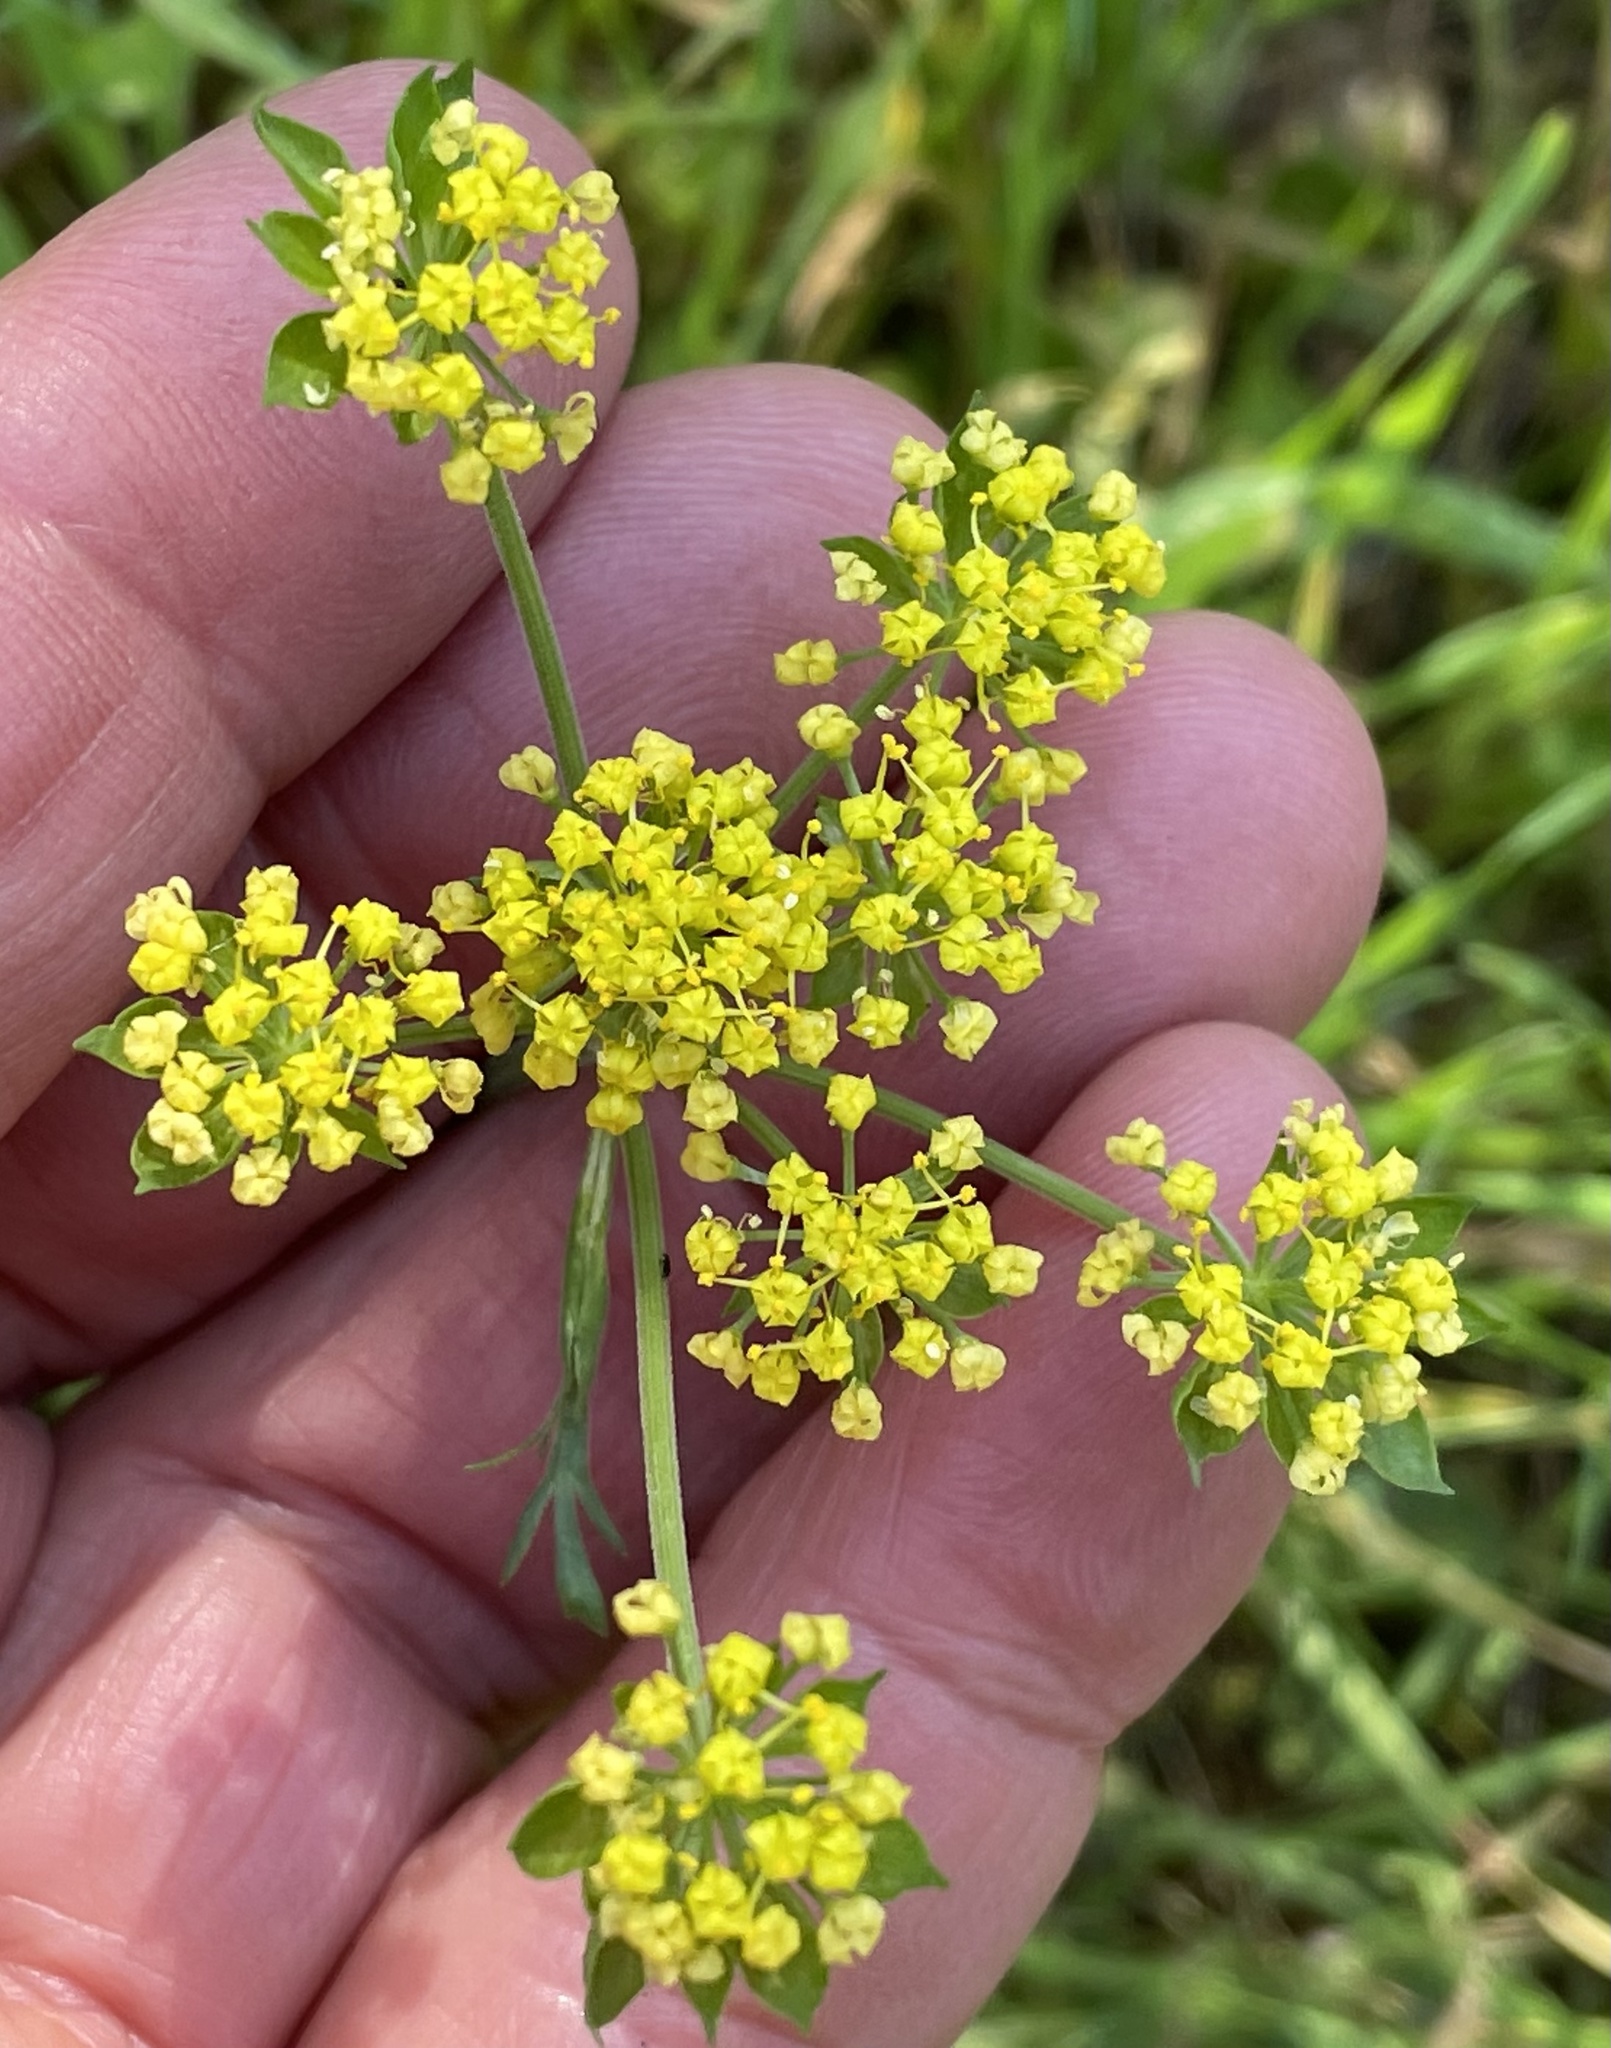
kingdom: Plantae
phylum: Tracheophyta
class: Magnoliopsida
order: Apiales
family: Apiaceae
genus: Lomatium
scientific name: Lomatium utriculatum
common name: Fine-leaf desert-parsley
